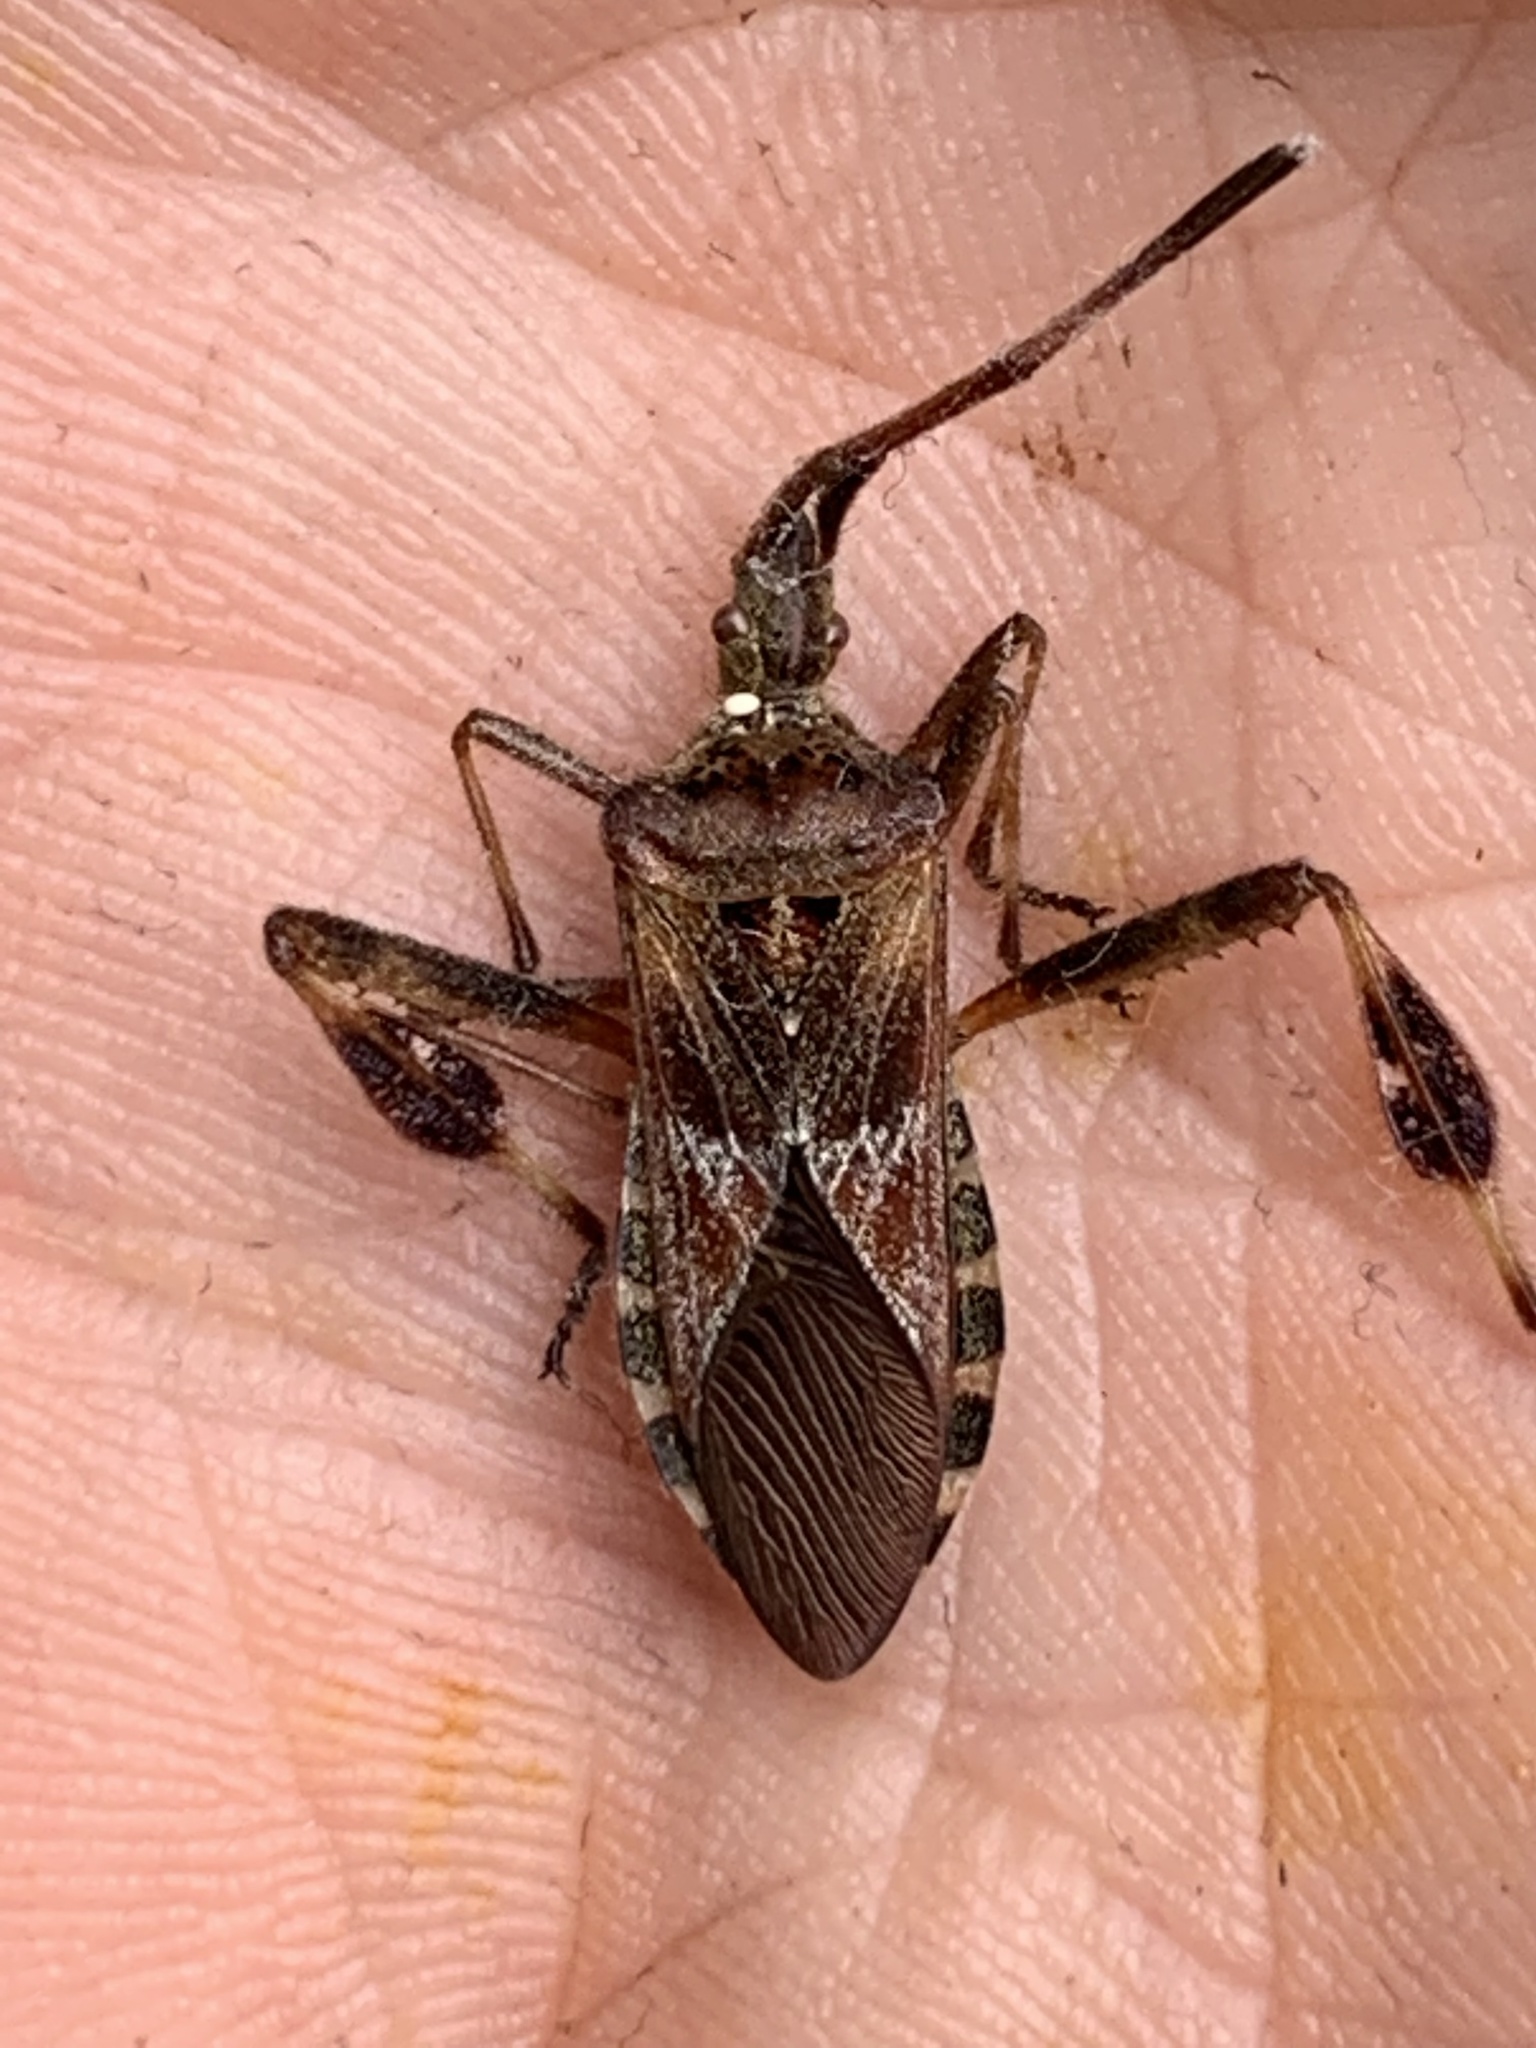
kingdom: Animalia
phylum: Arthropoda
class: Insecta
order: Hemiptera
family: Coreidae
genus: Leptoglossus
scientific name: Leptoglossus occidentalis
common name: Western conifer-seed bug
